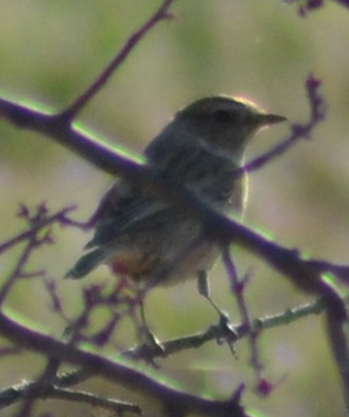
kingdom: Animalia
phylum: Chordata
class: Aves
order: Passeriformes
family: Muscicapidae
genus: Saxicola
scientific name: Saxicola rubicola
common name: European stonechat
